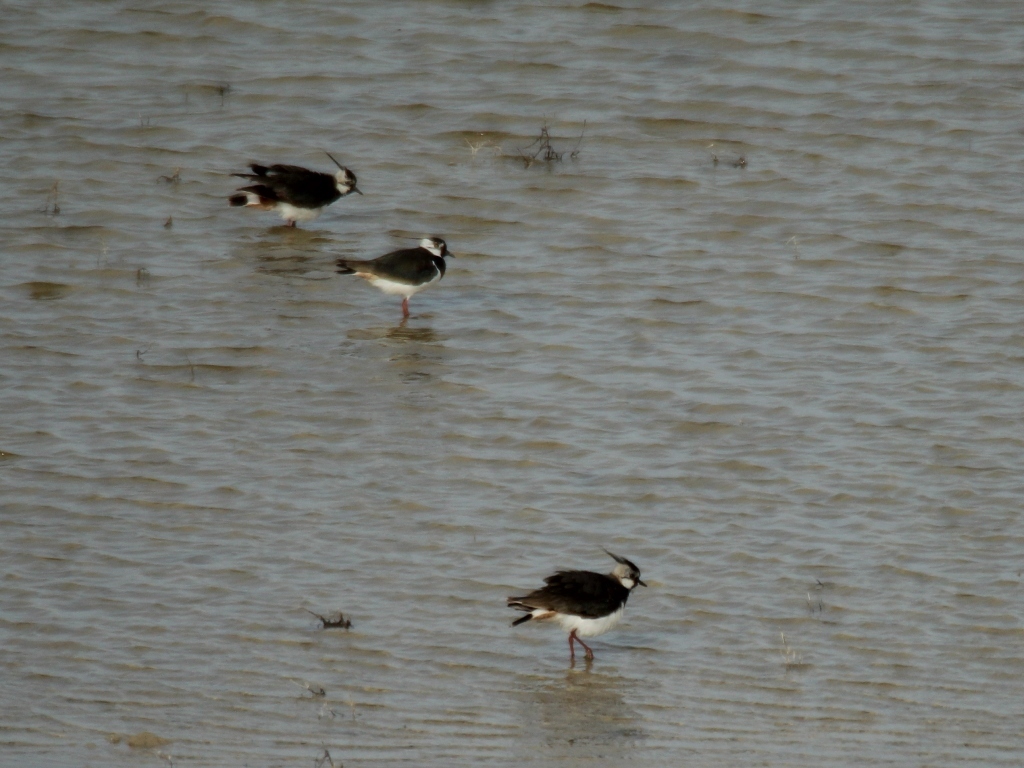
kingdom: Animalia
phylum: Chordata
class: Aves
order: Charadriiformes
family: Charadriidae
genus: Vanellus
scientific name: Vanellus vanellus
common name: Northern lapwing
